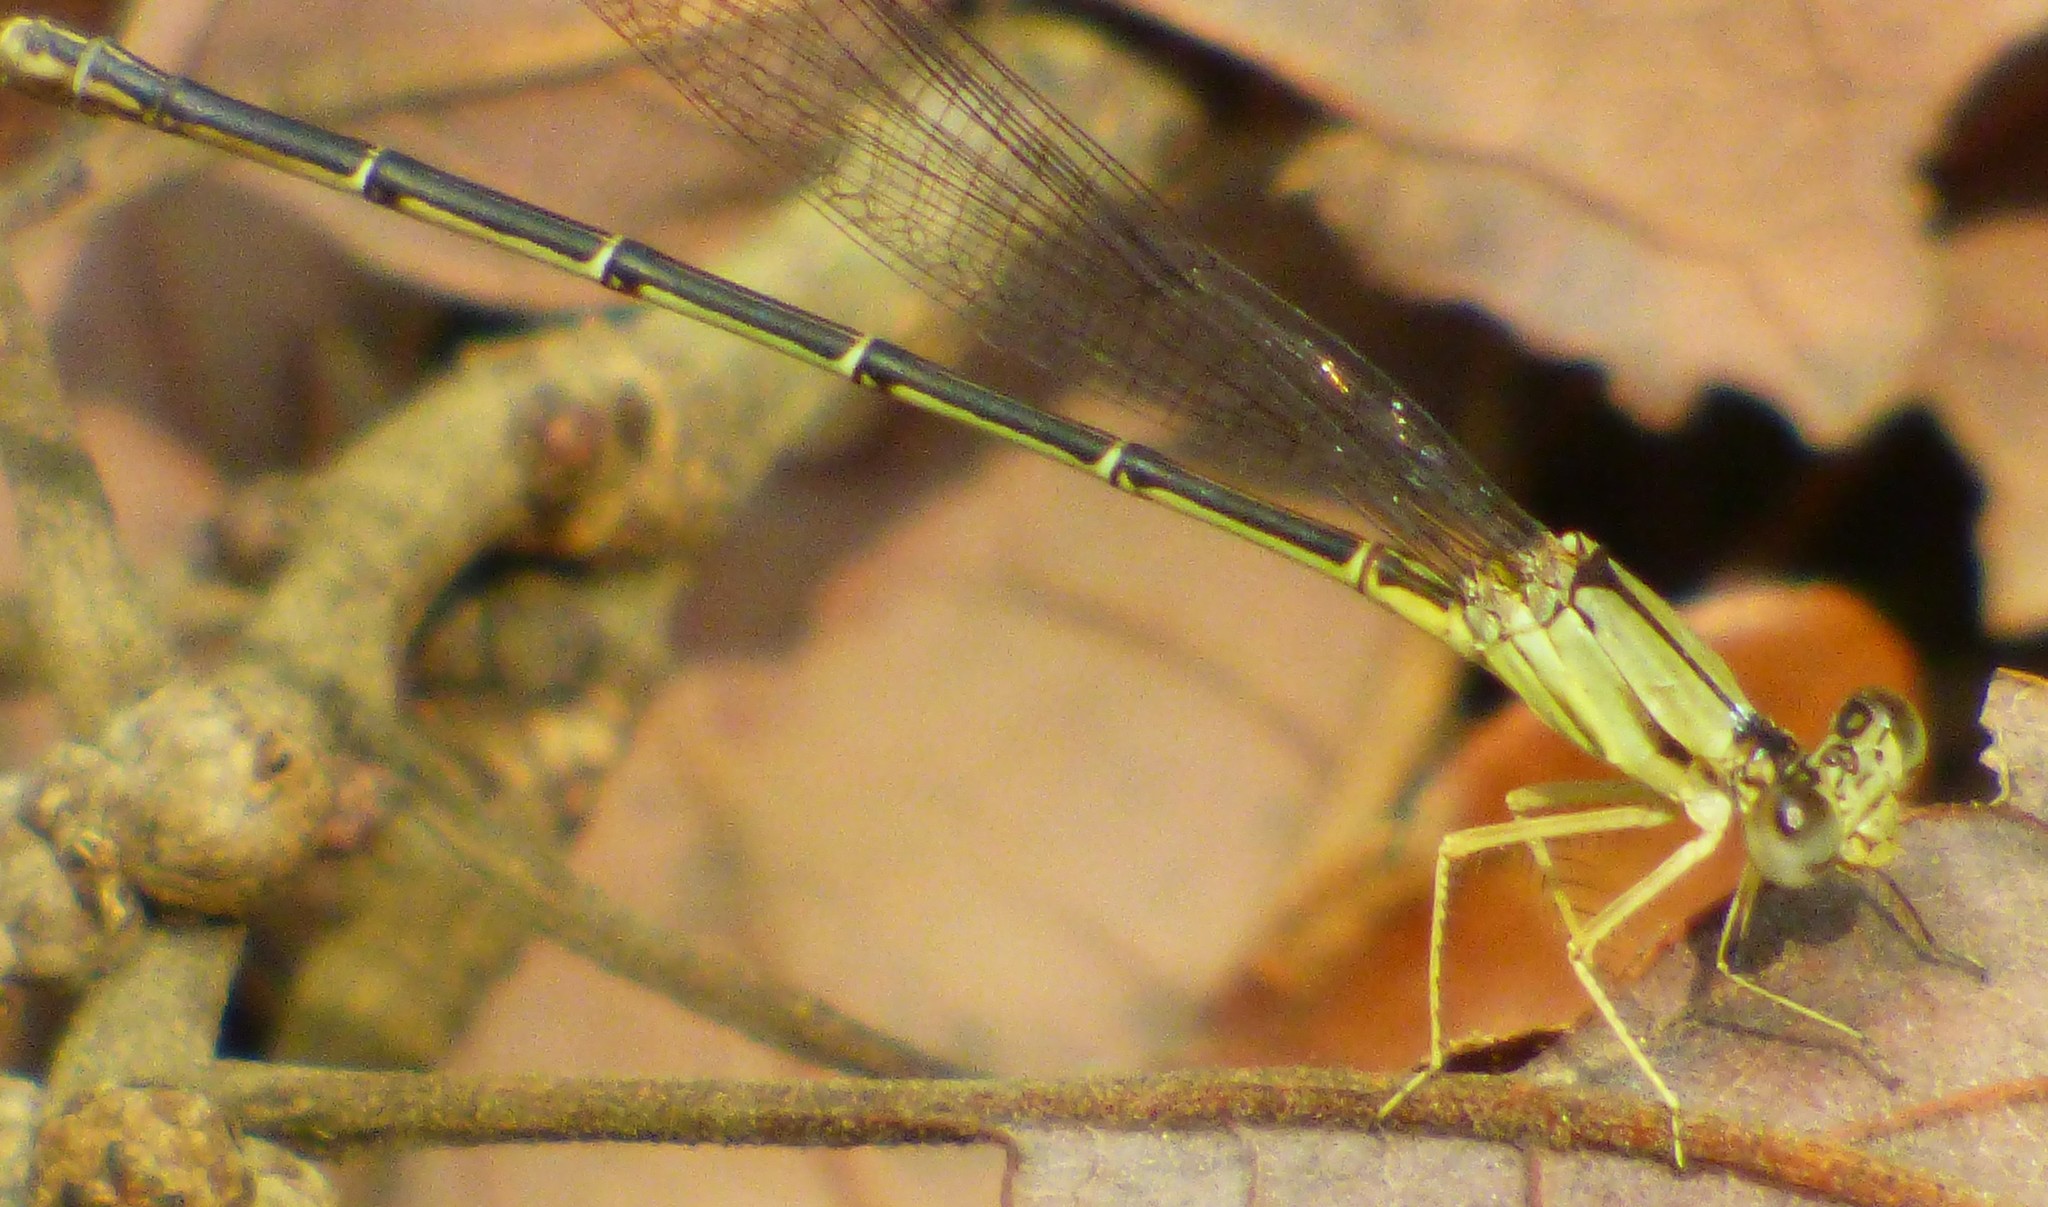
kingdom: Animalia
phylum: Arthropoda
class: Insecta
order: Odonata
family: Coenagrionidae
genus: Argia
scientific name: Argia apicalis
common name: Blue-fronted dancer
